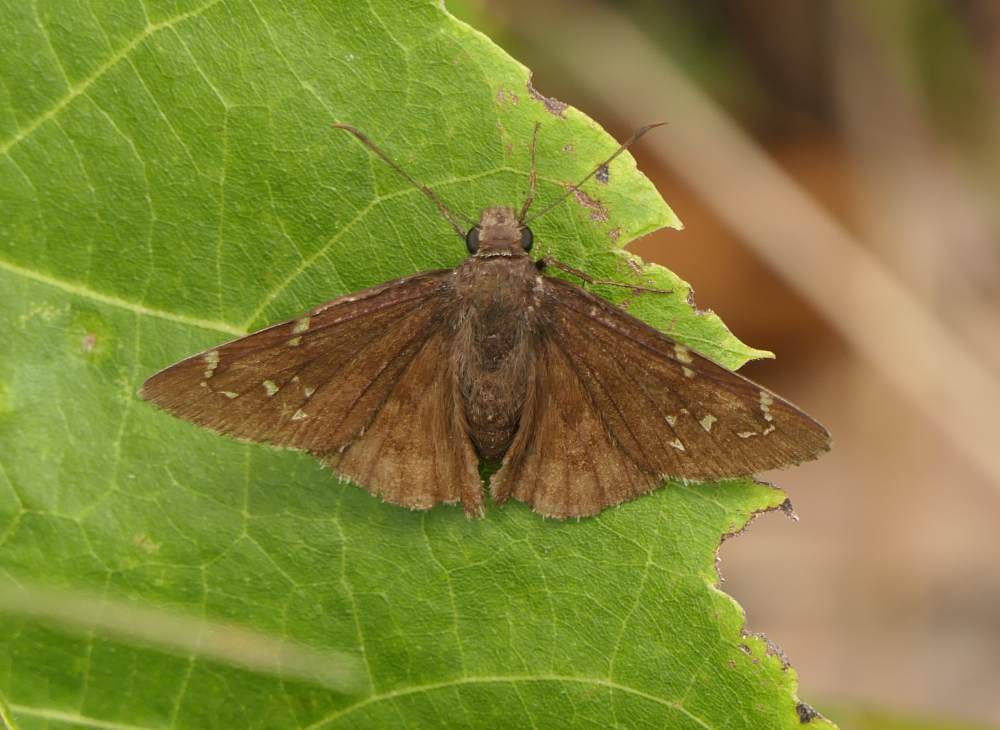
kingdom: Animalia
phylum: Arthropoda
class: Insecta
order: Lepidoptera
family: Hesperiidae
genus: Thorybes
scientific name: Thorybes pylades
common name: Northern cloudywing
